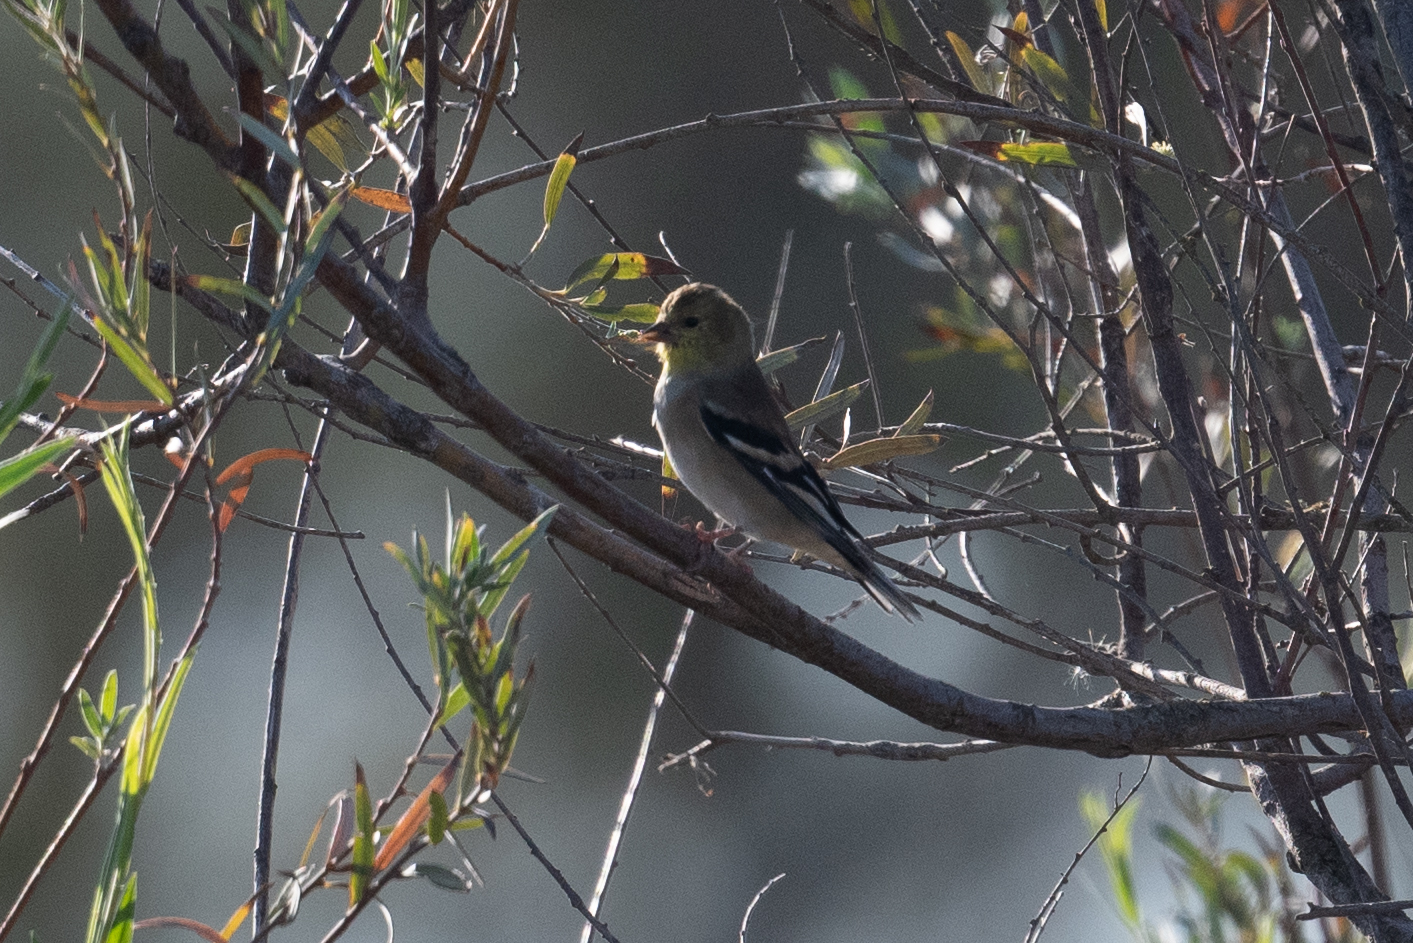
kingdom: Animalia
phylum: Chordata
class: Aves
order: Passeriformes
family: Fringillidae
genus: Spinus
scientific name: Spinus tristis
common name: American goldfinch
